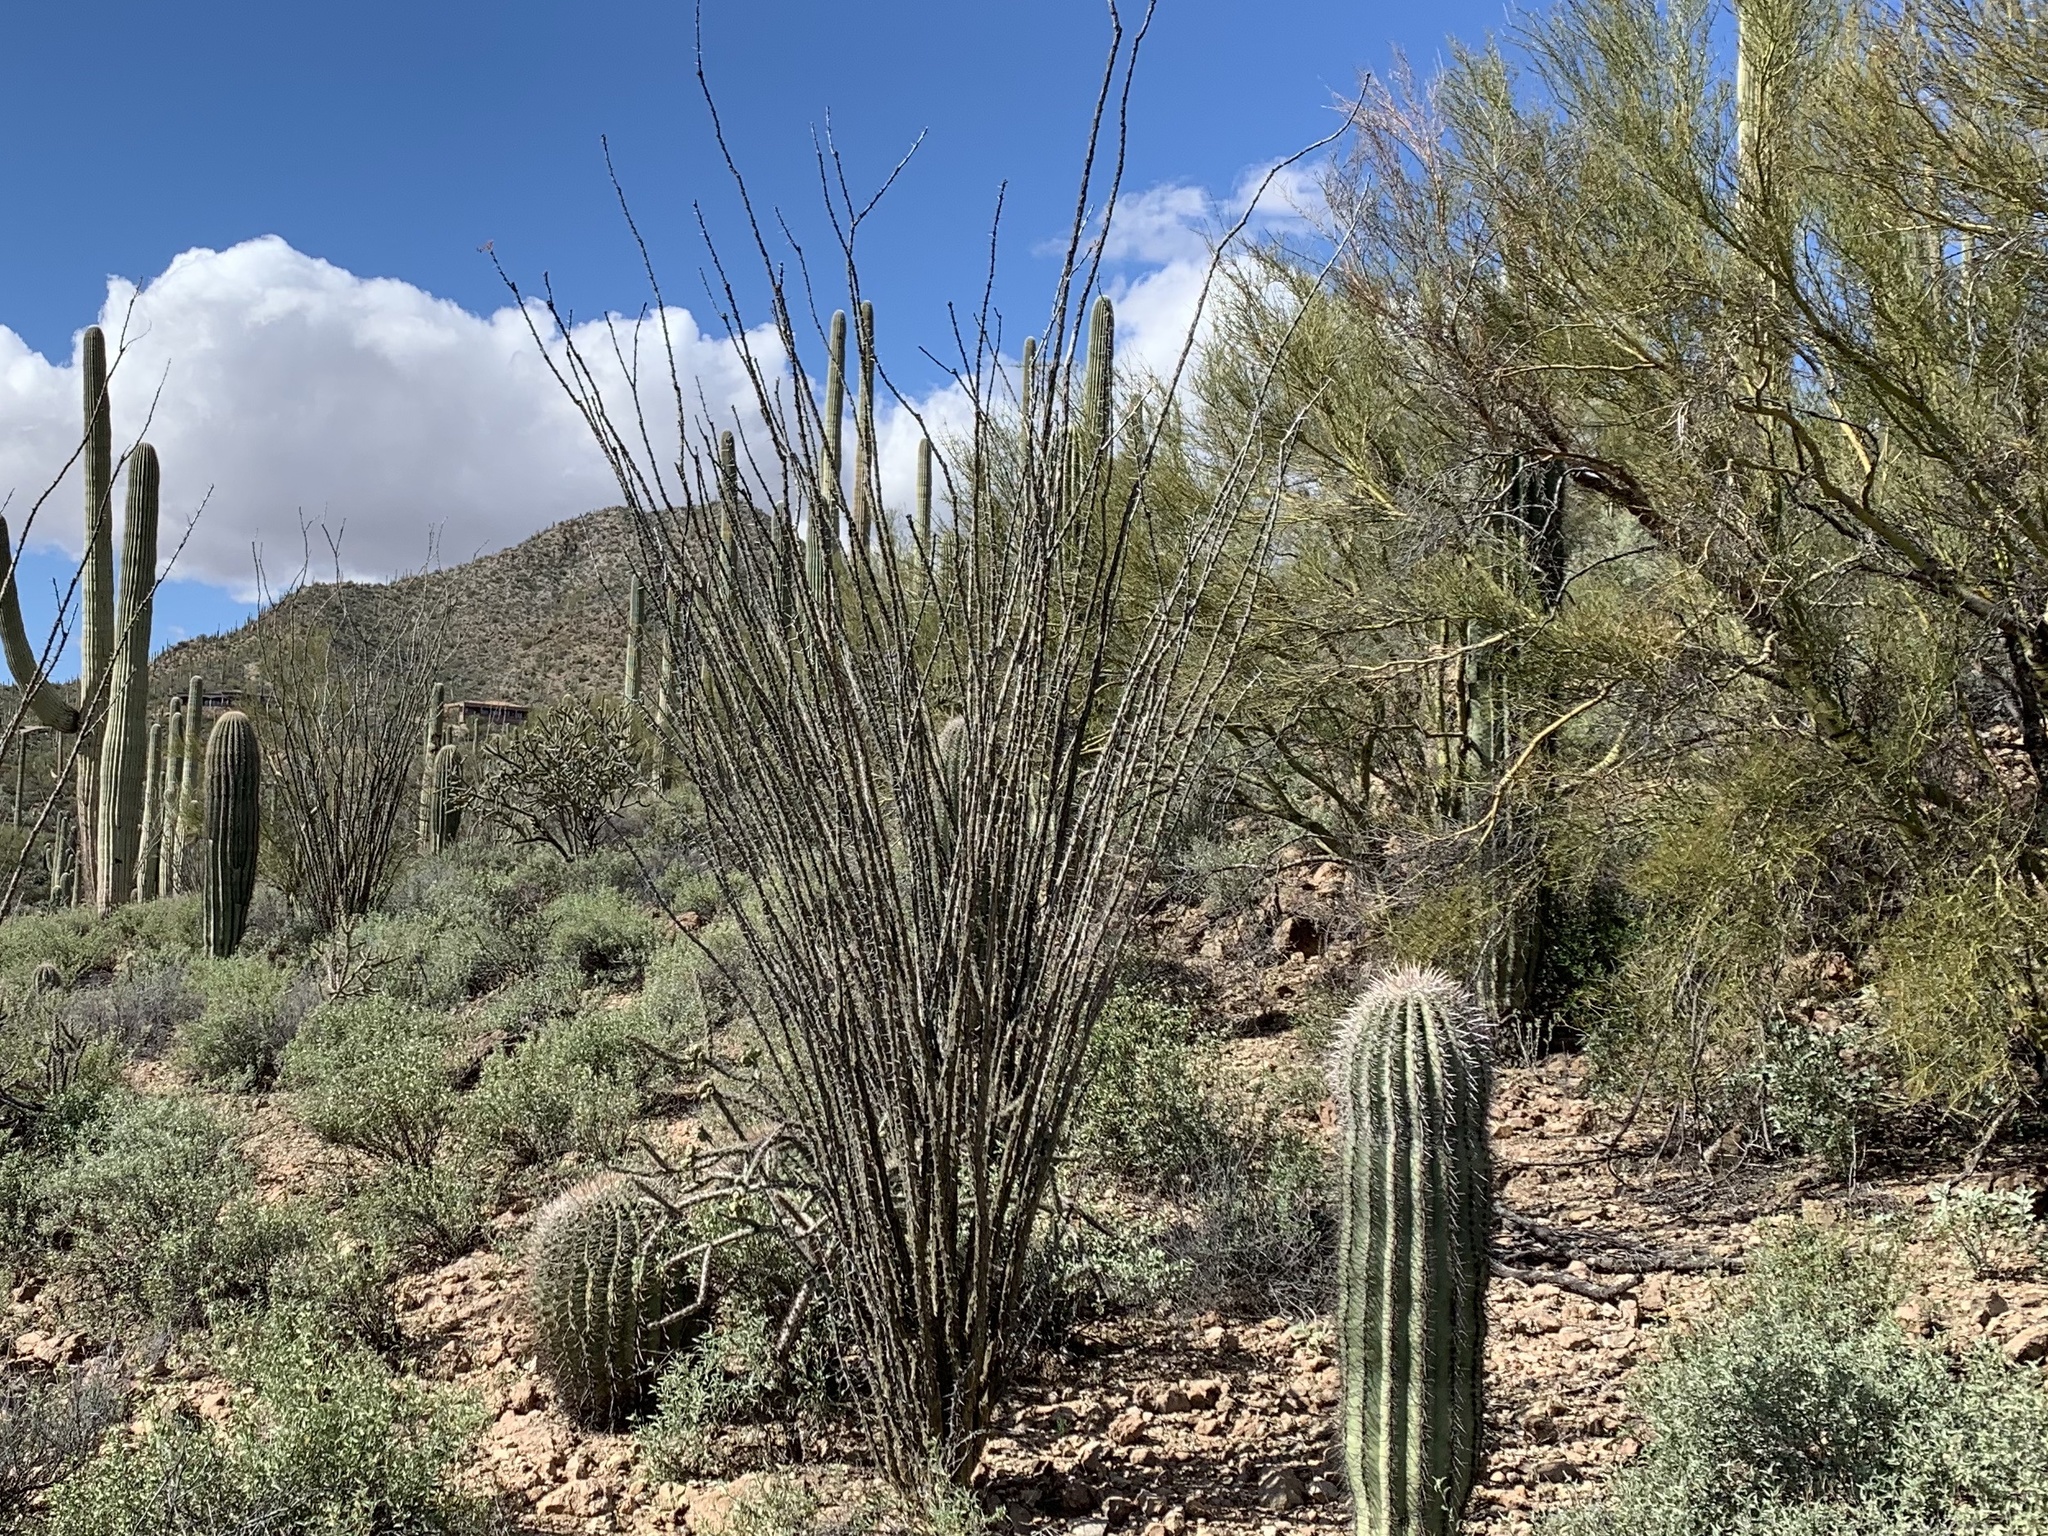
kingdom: Plantae
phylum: Tracheophyta
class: Magnoliopsida
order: Ericales
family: Fouquieriaceae
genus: Fouquieria
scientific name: Fouquieria splendens
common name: Vine-cactus
